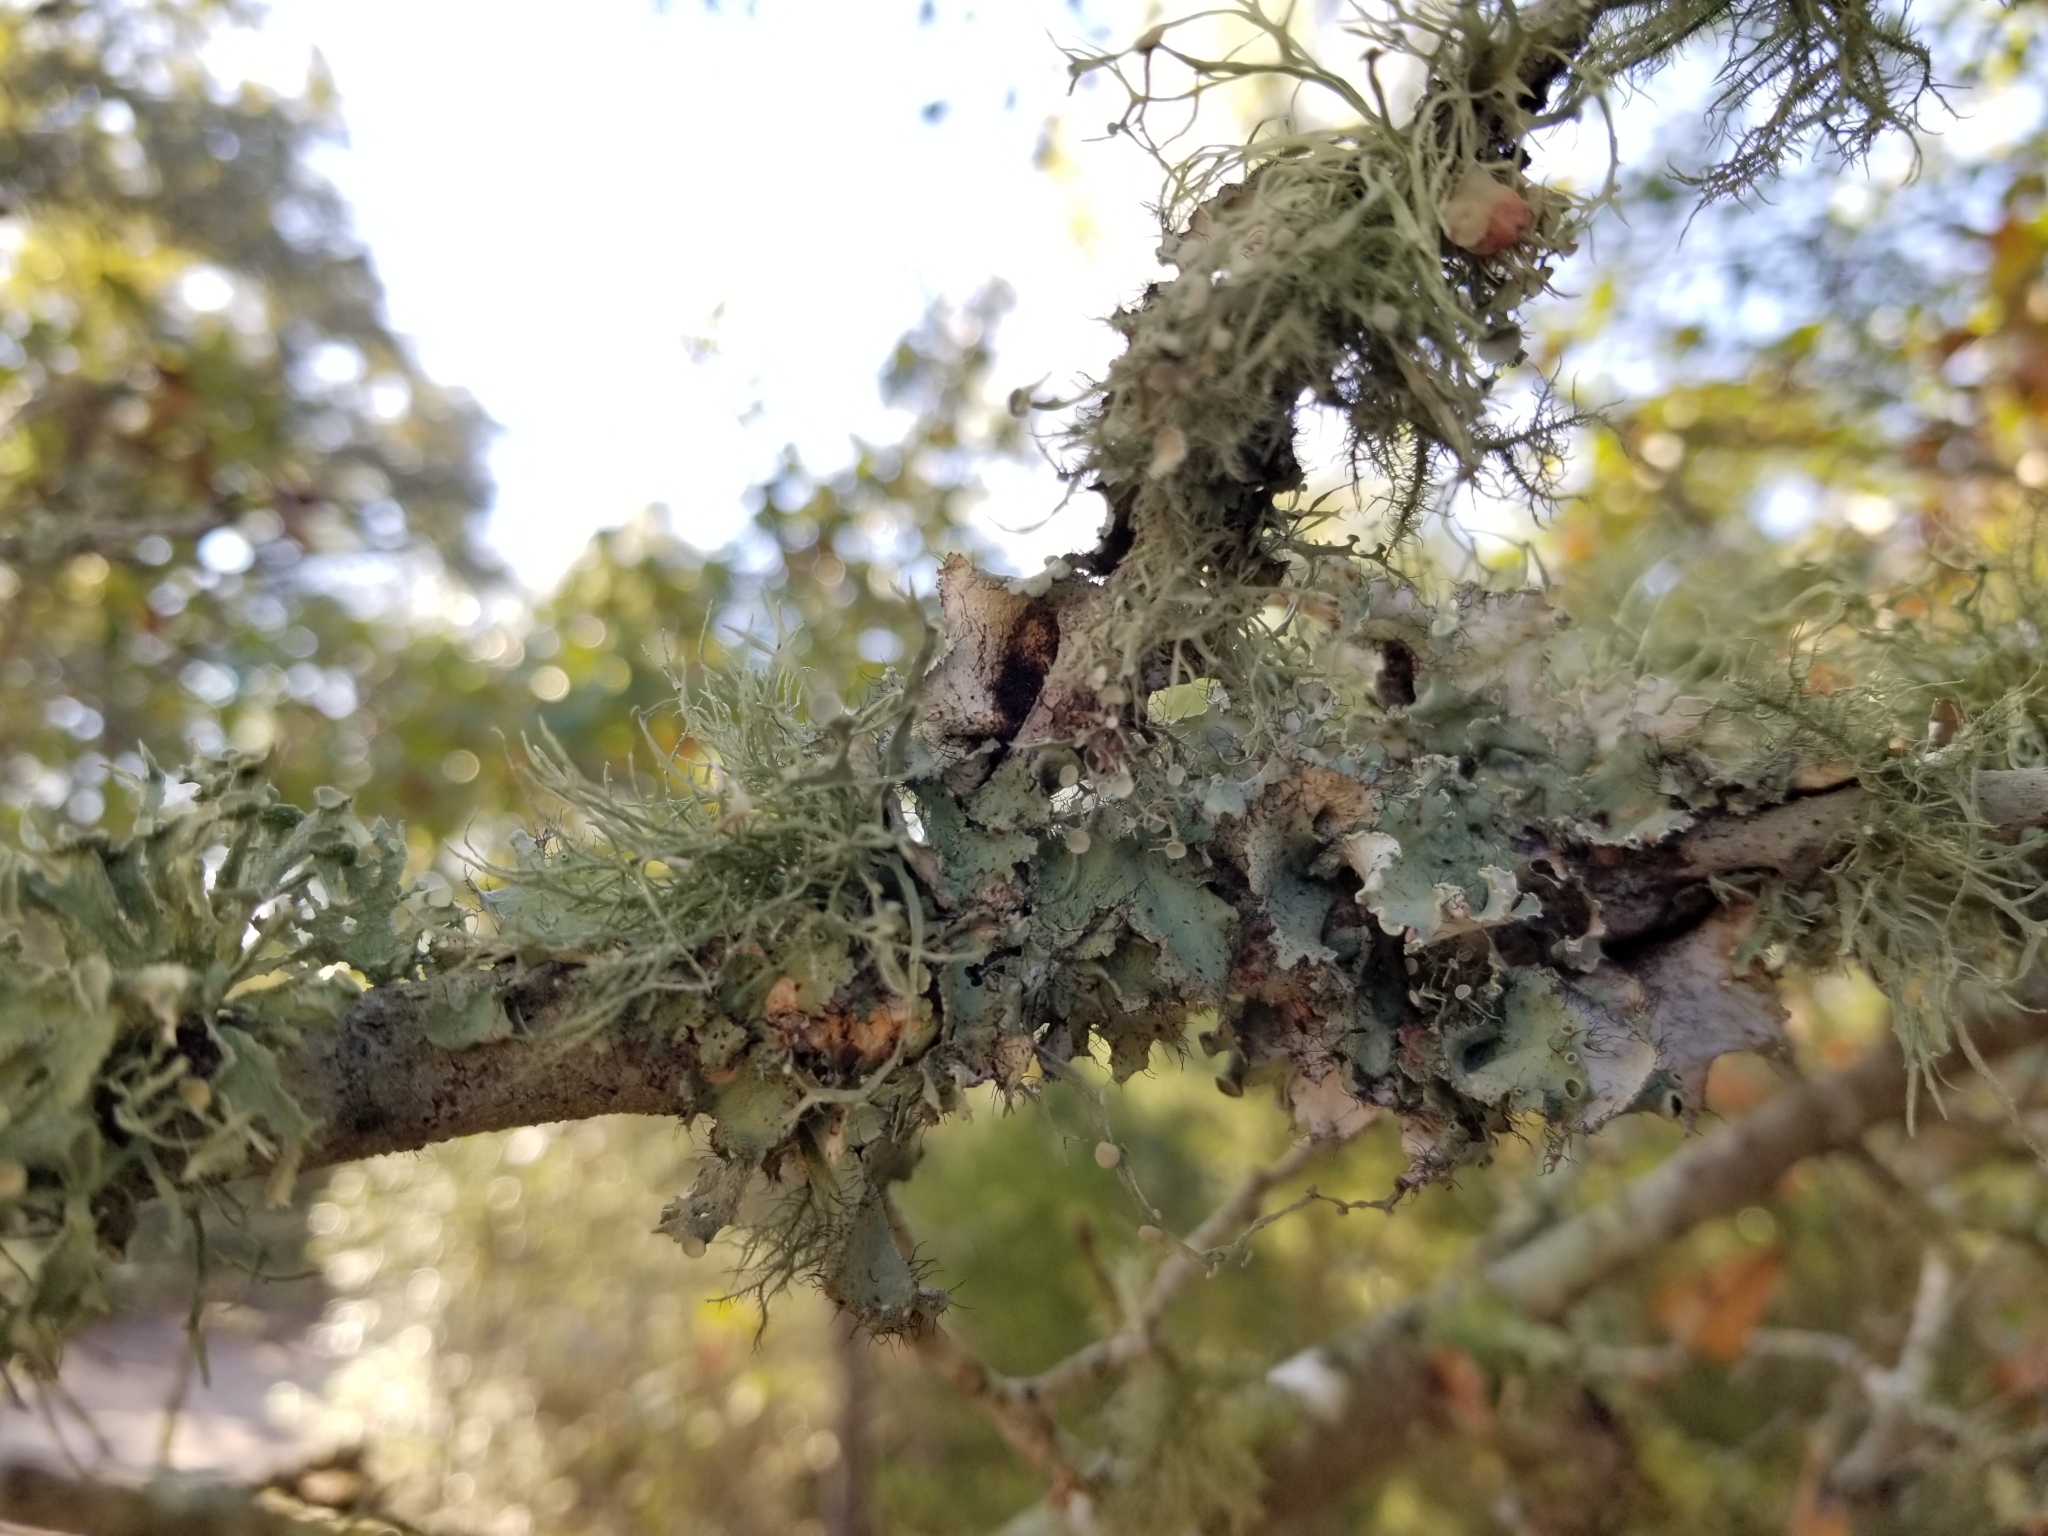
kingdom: Fungi
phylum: Ascomycota
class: Lecanoromycetes
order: Lecanorales
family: Ramalinaceae
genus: Ramalina
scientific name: Ramalina celastri
